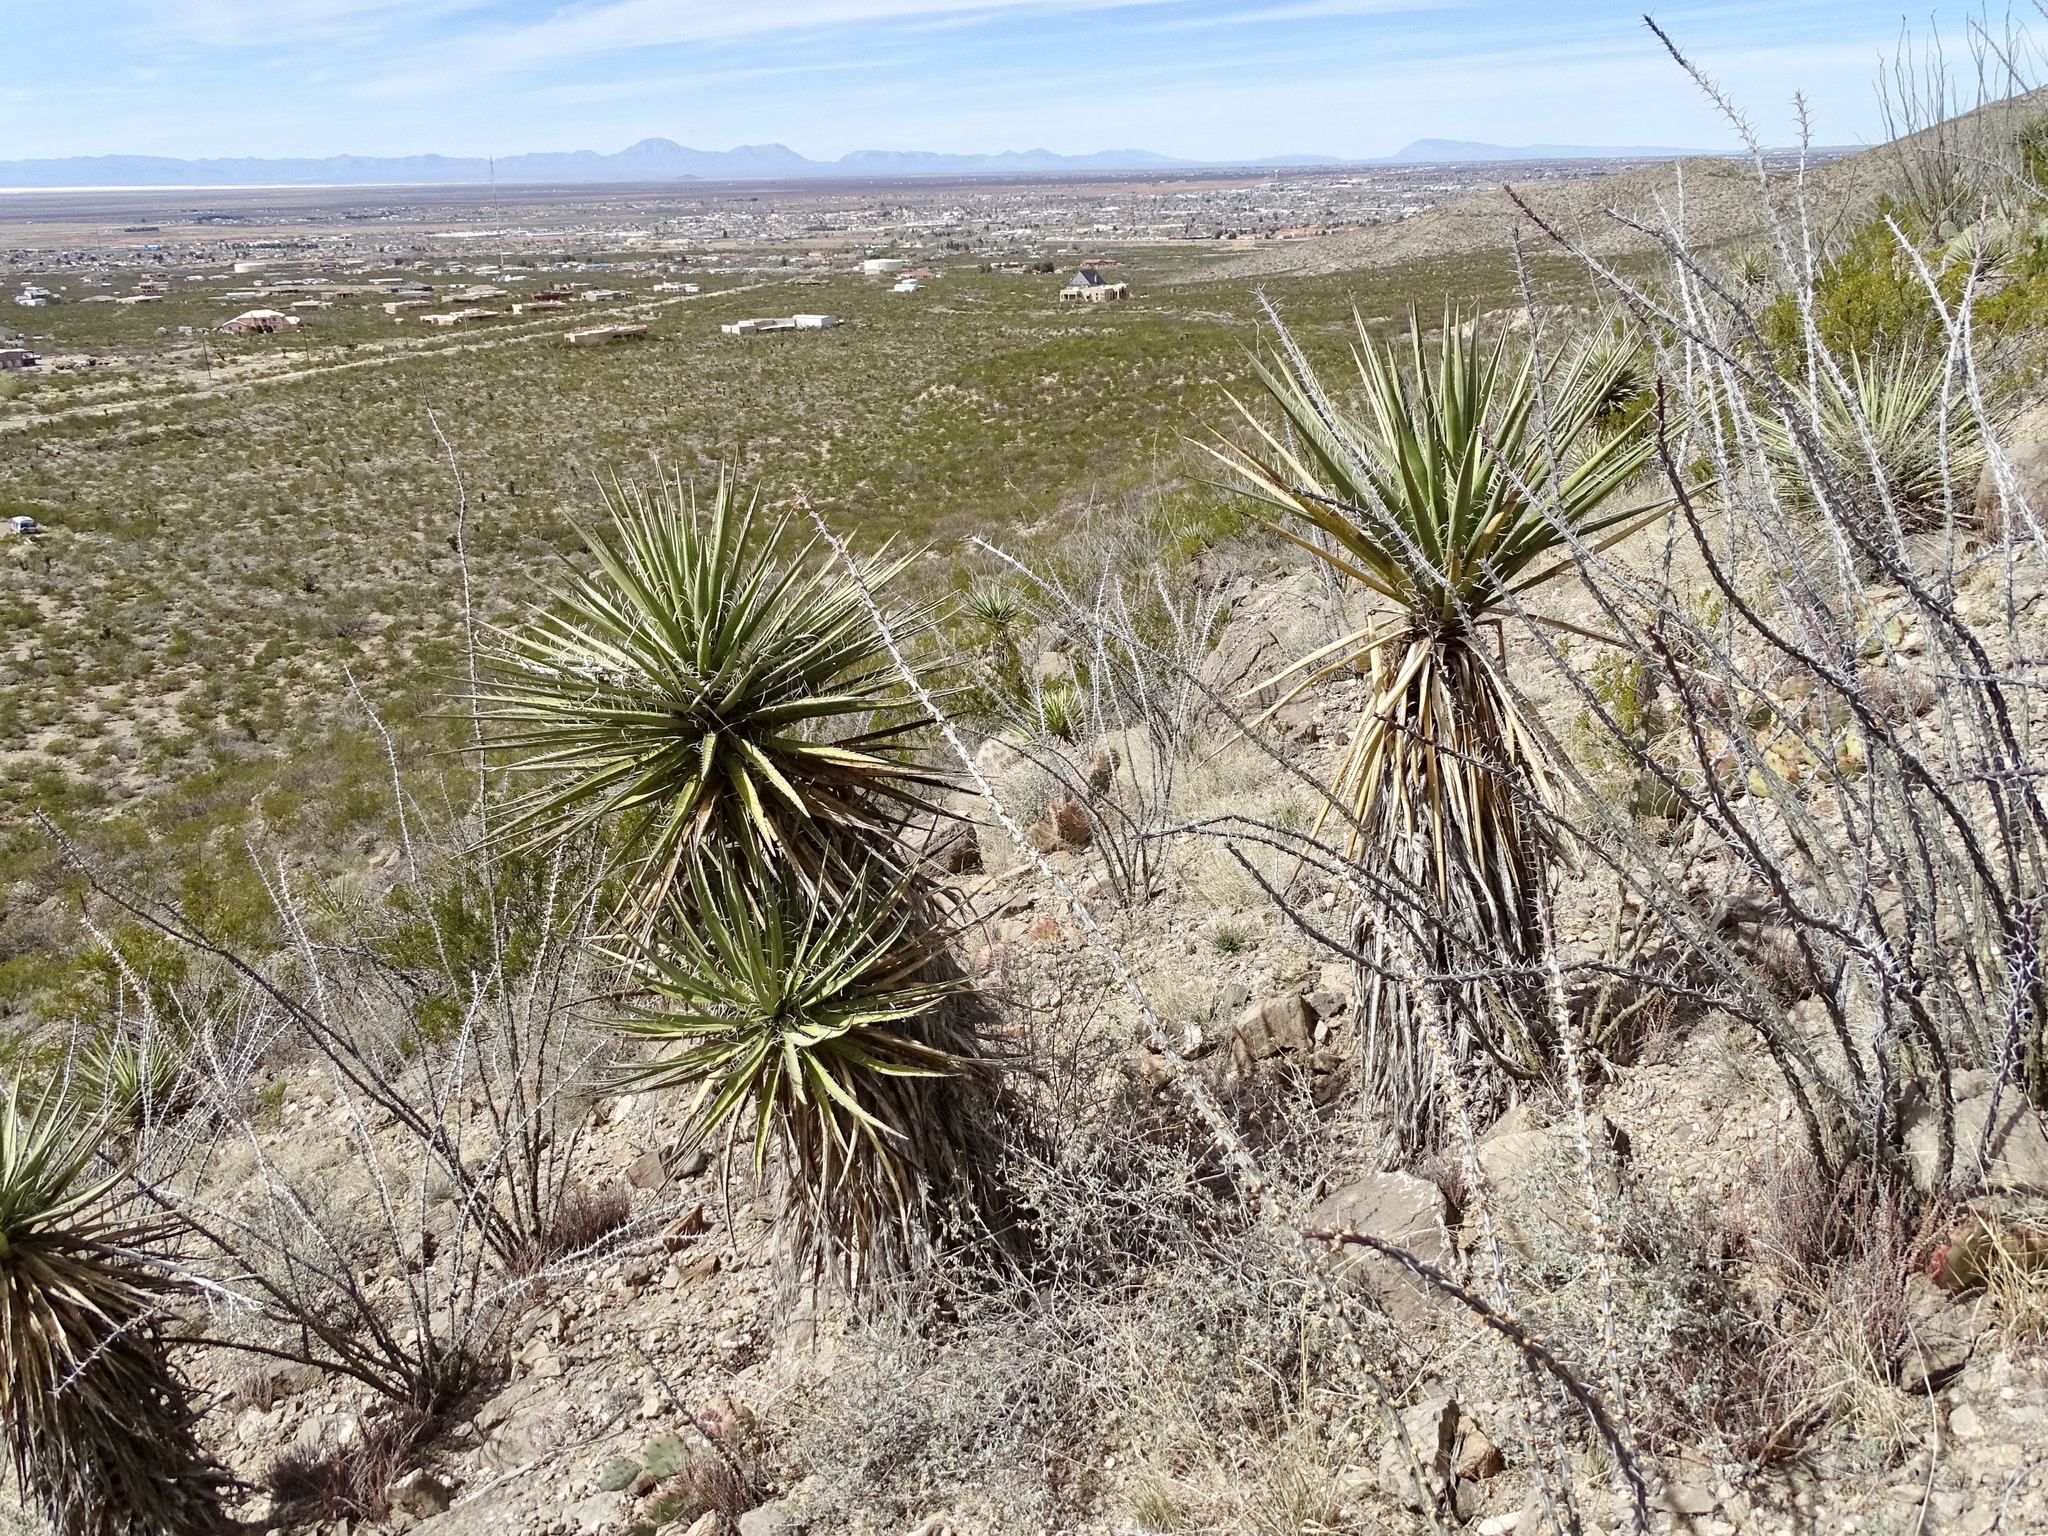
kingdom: Plantae
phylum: Tracheophyta
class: Liliopsida
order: Asparagales
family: Asparagaceae
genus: Yucca
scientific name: Yucca treculiana
